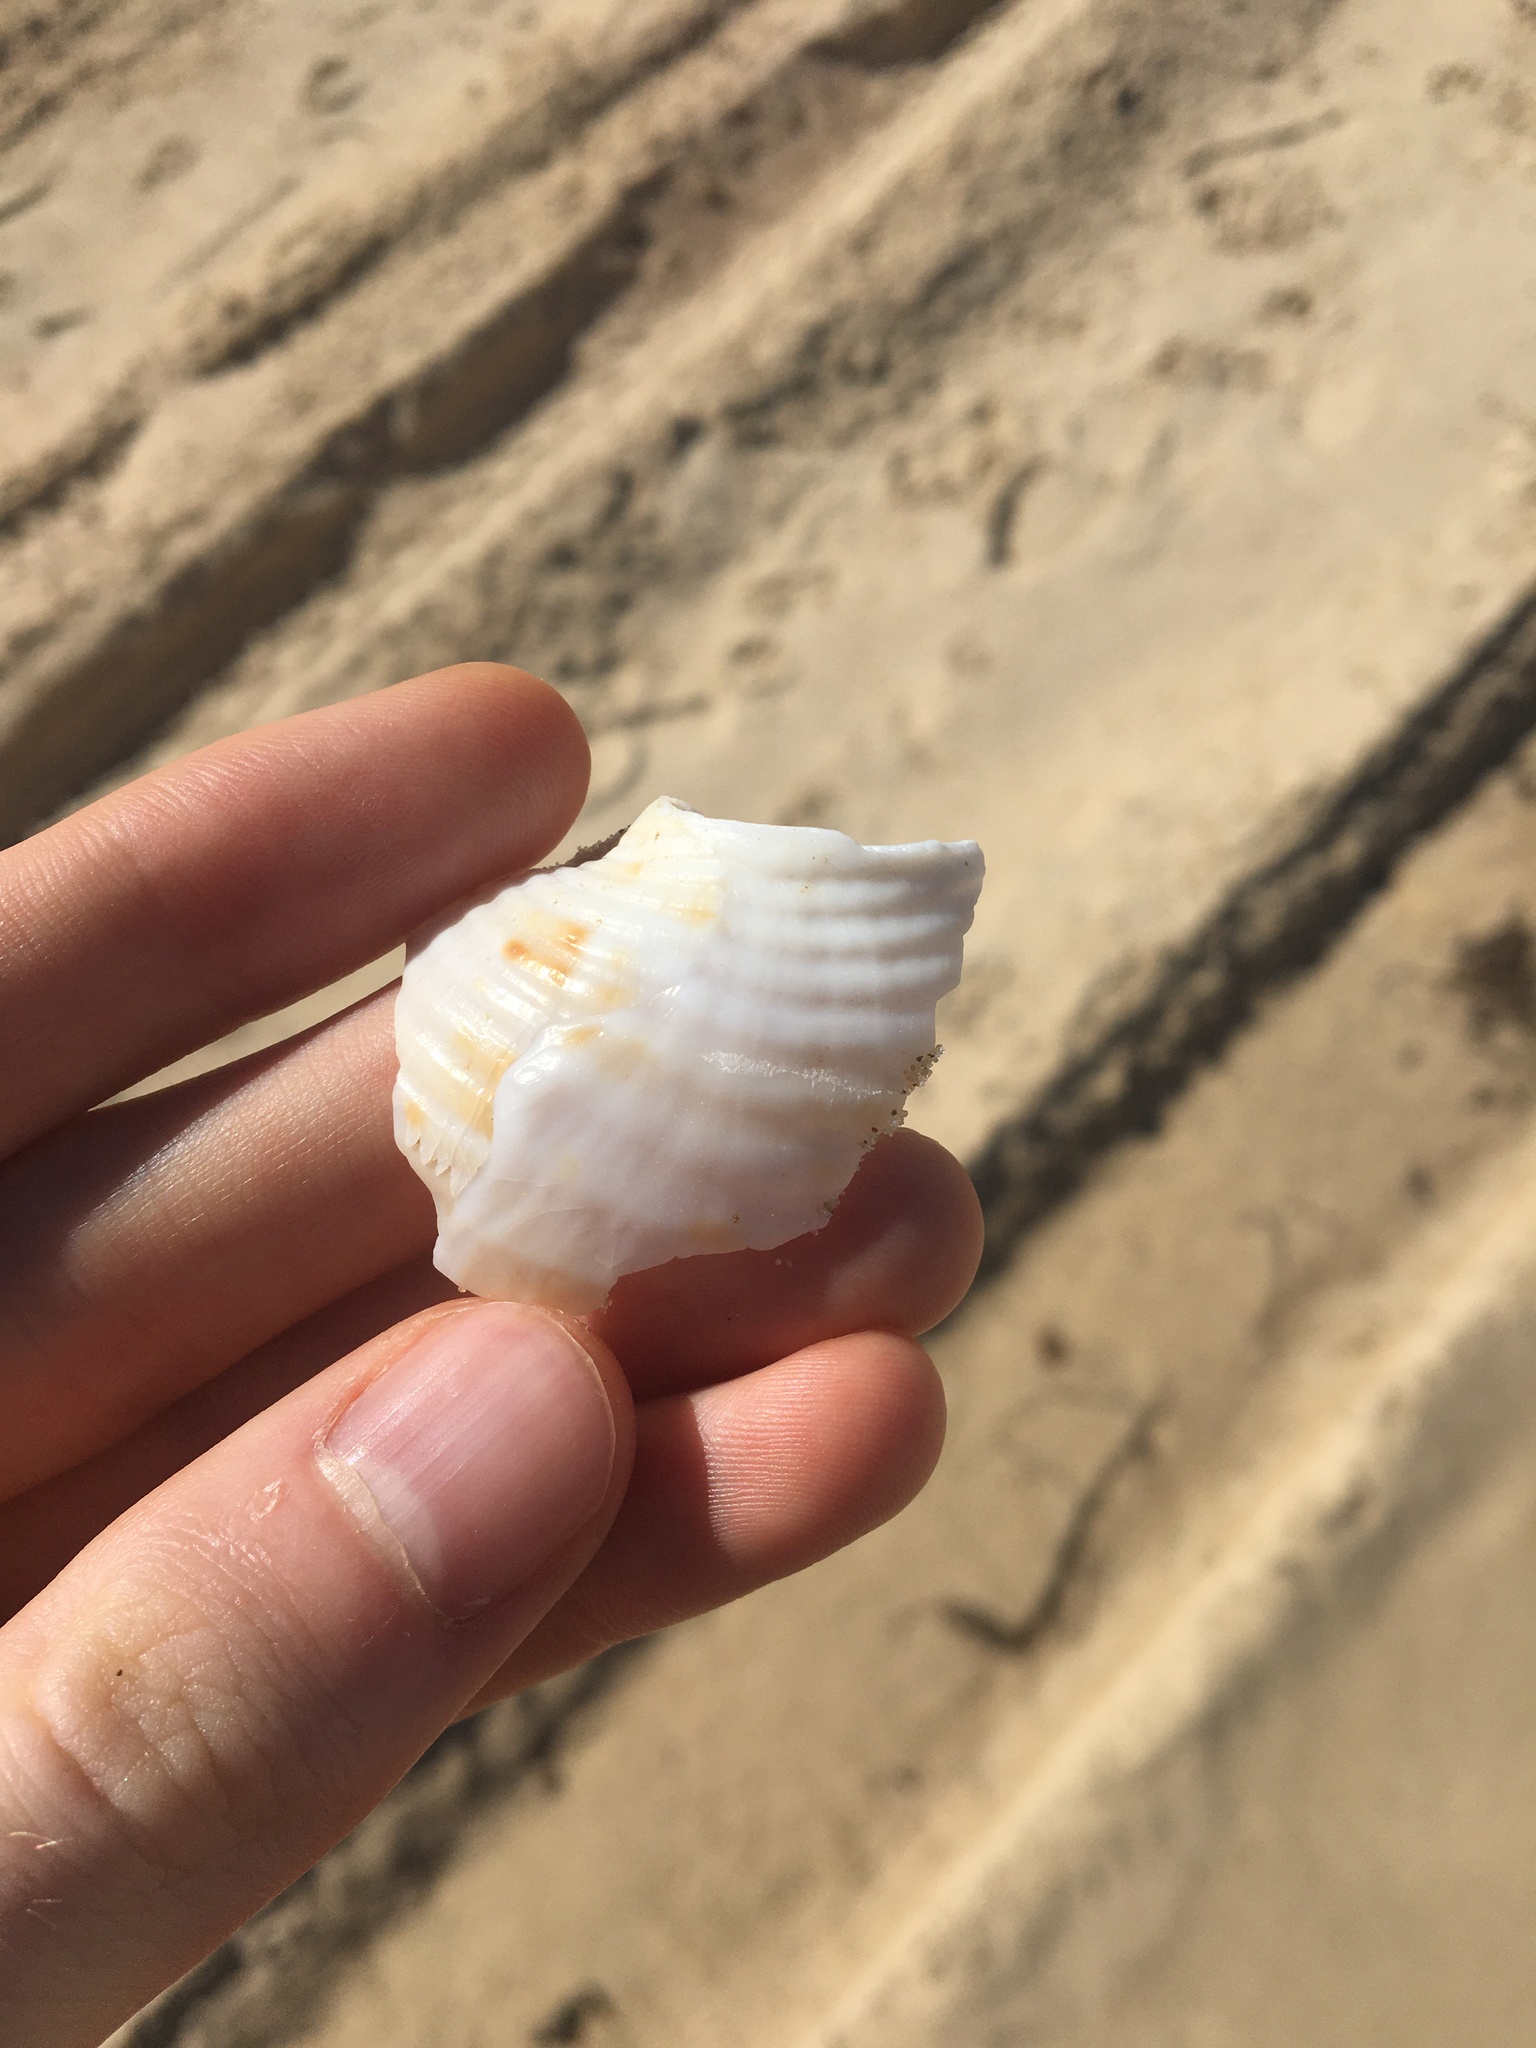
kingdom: Animalia
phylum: Mollusca
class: Gastropoda
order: Littorinimorpha
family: Tonnidae
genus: Tonna
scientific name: Tonna tankervillii
